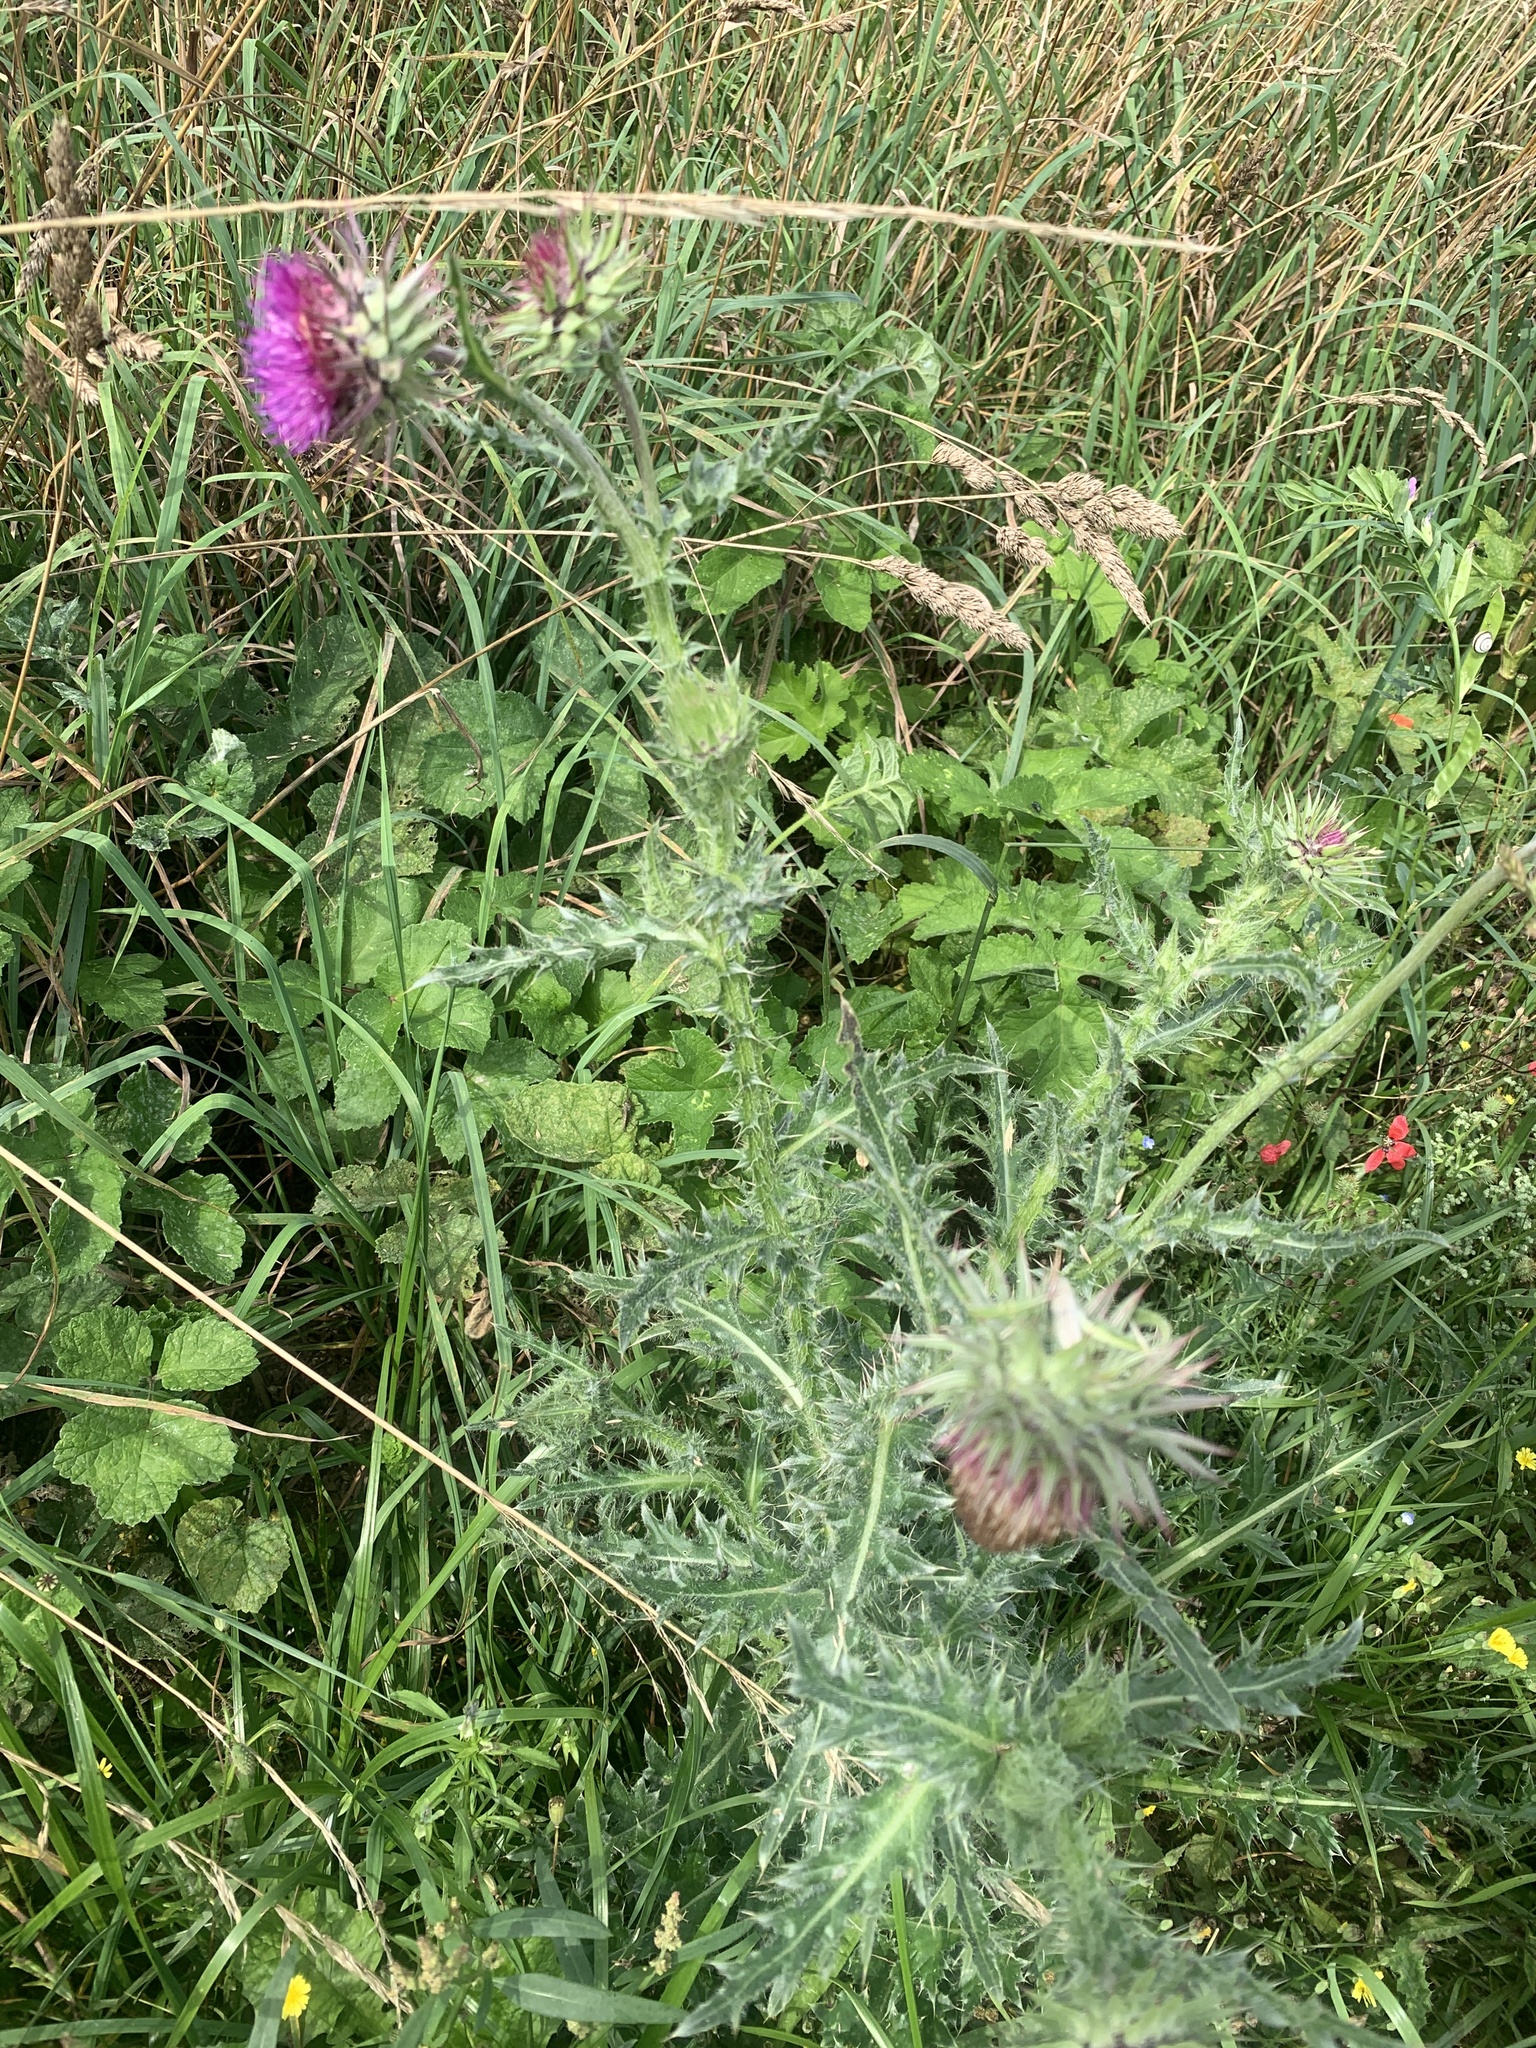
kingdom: Plantae
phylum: Tracheophyta
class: Magnoliopsida
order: Asterales
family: Asteraceae
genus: Carduus
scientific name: Carduus nutans
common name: Musk thistle
